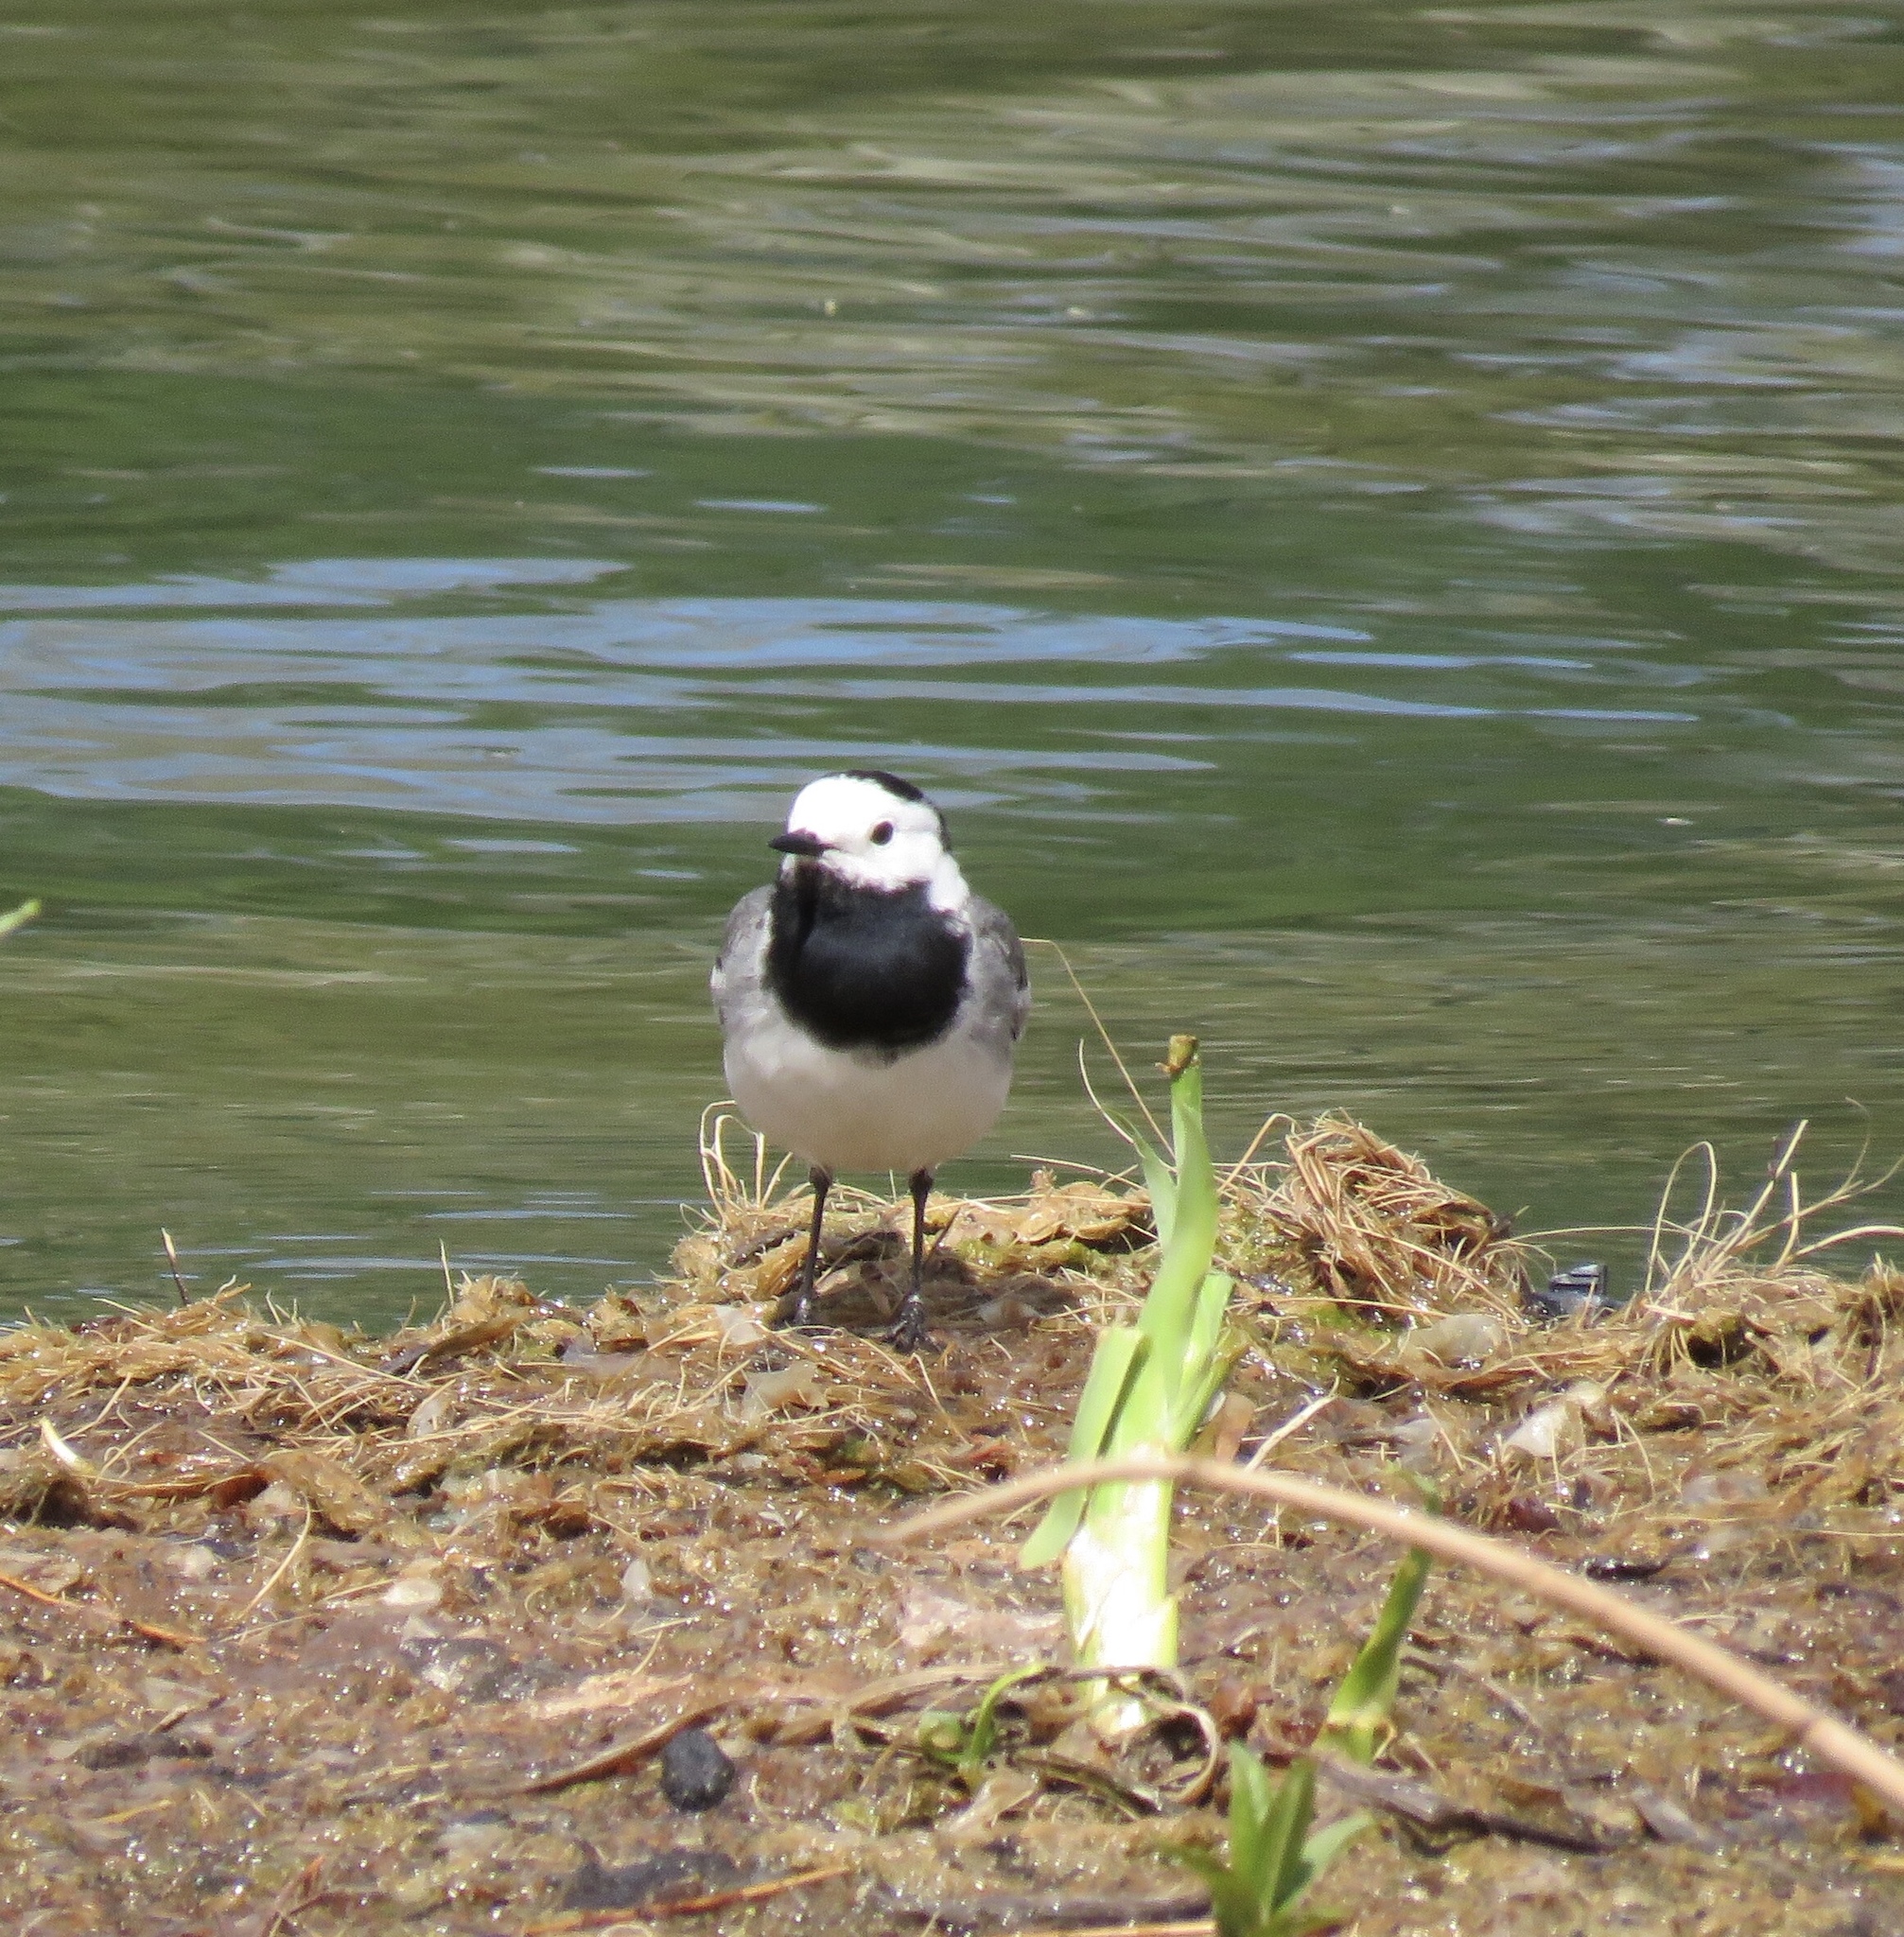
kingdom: Animalia
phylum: Chordata
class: Aves
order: Passeriformes
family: Motacillidae
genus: Motacilla
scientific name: Motacilla alba
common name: White wagtail
